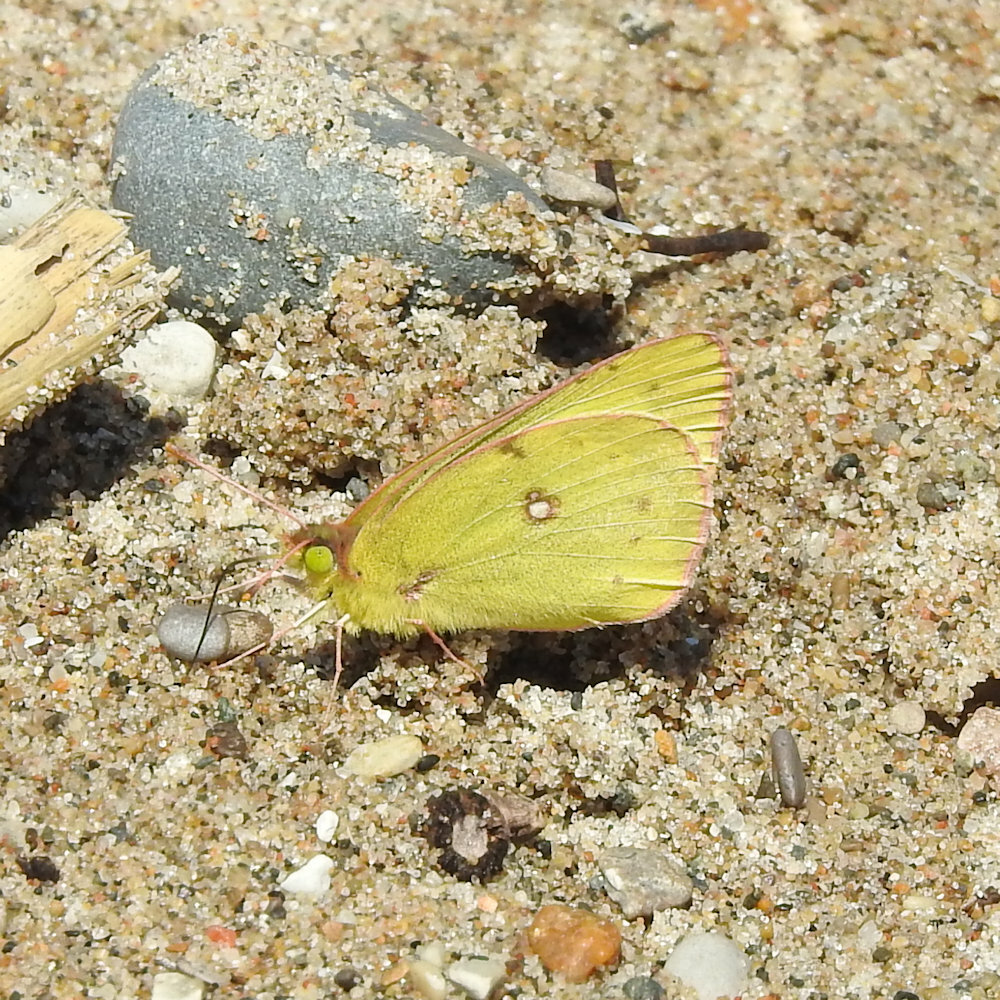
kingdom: Animalia
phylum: Arthropoda
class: Insecta
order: Lepidoptera
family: Pieridae
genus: Colias
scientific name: Colias philodice
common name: Clouded sulphur
